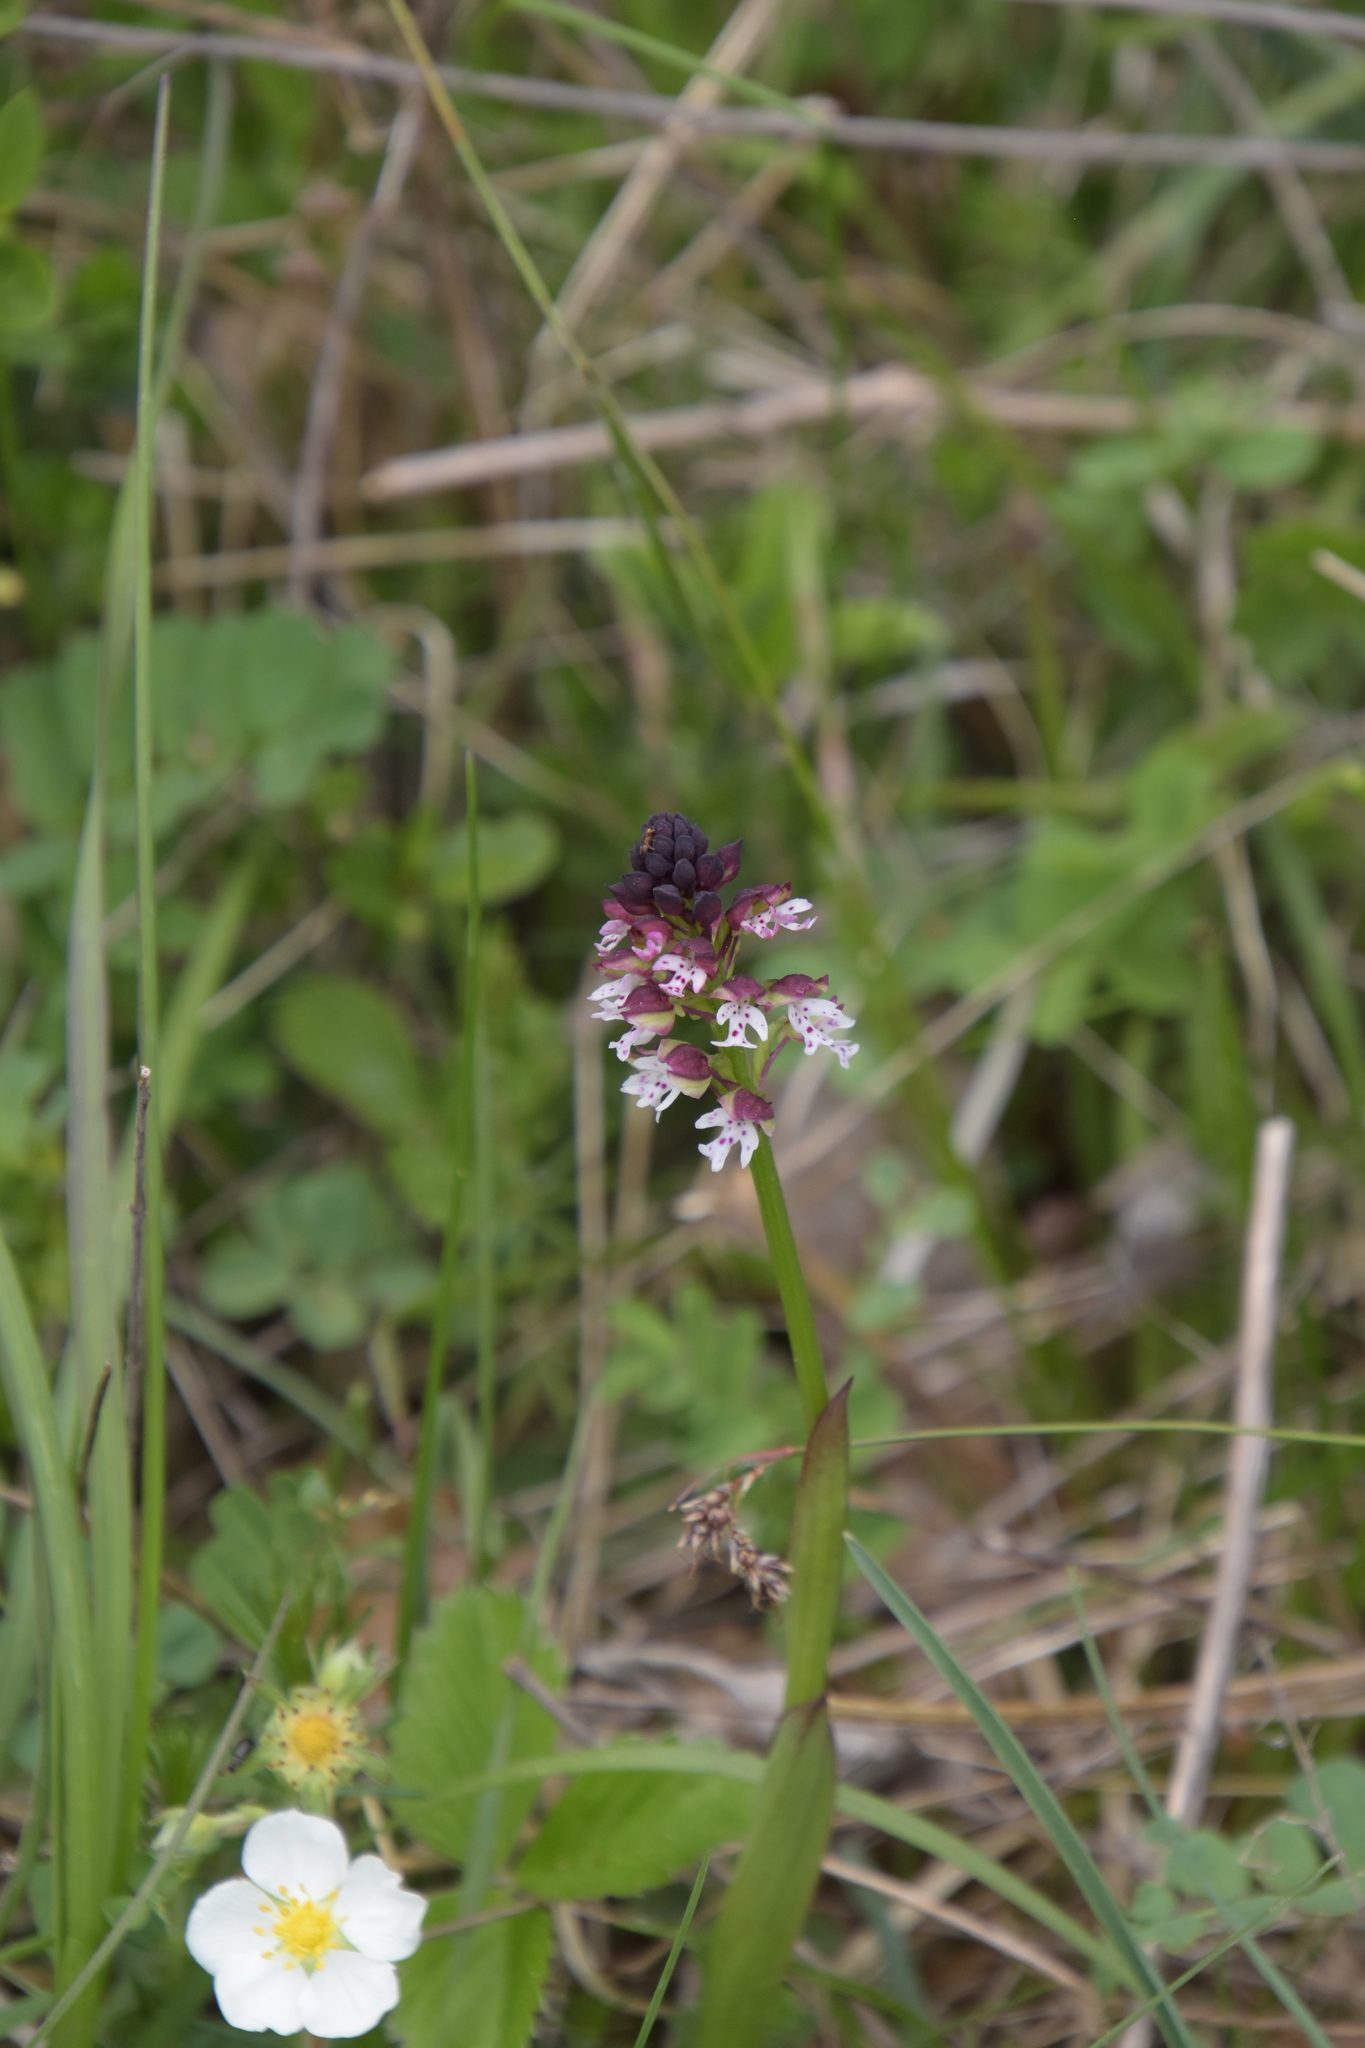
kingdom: Plantae
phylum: Tracheophyta
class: Liliopsida
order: Asparagales
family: Orchidaceae
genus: Neotinea
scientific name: Neotinea ustulata
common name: Burnt orchid
